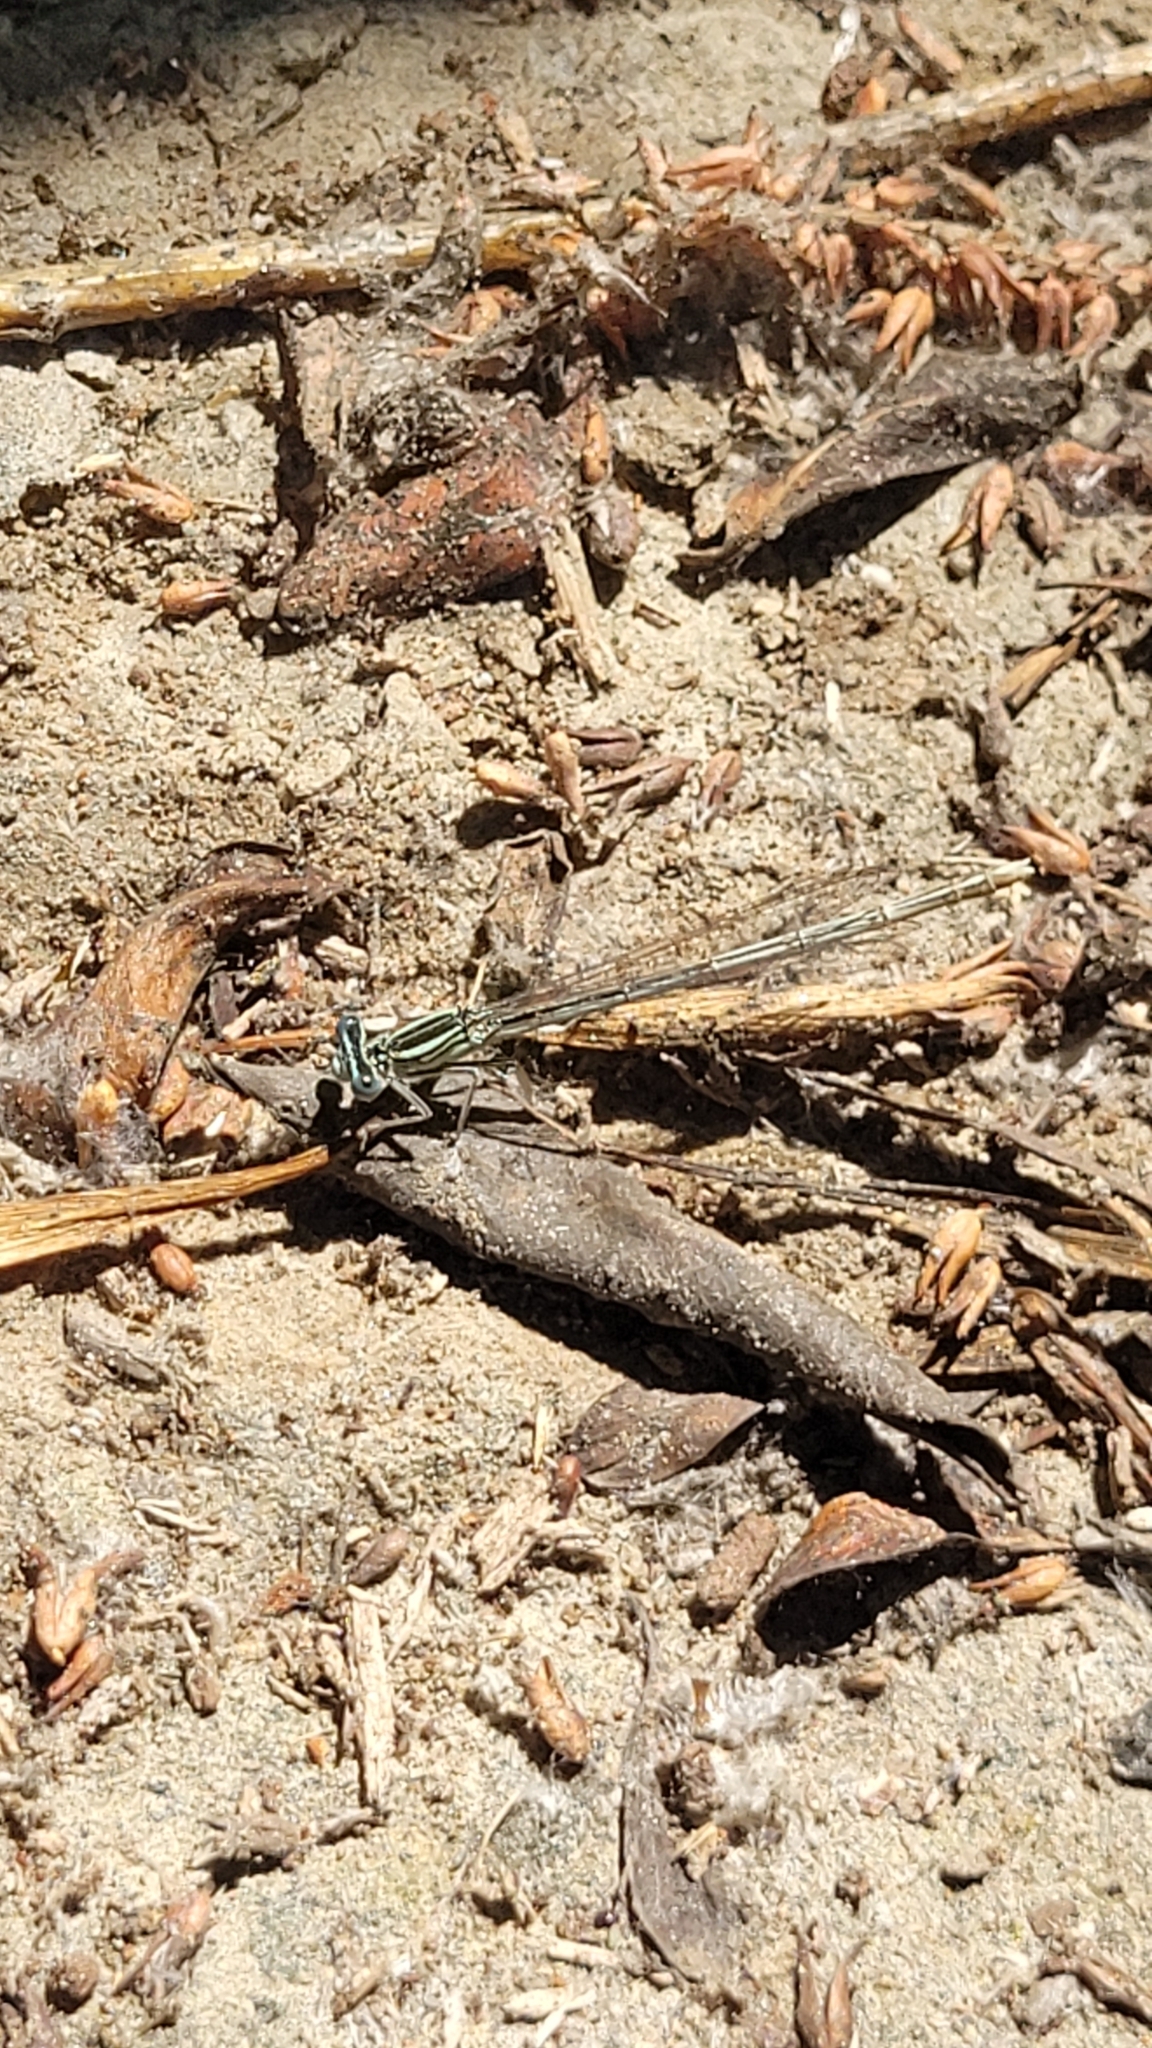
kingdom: Animalia
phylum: Arthropoda
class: Insecta
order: Odonata
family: Platycnemididae
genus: Platycnemis
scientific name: Platycnemis pennipes
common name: White-legged damselfly
